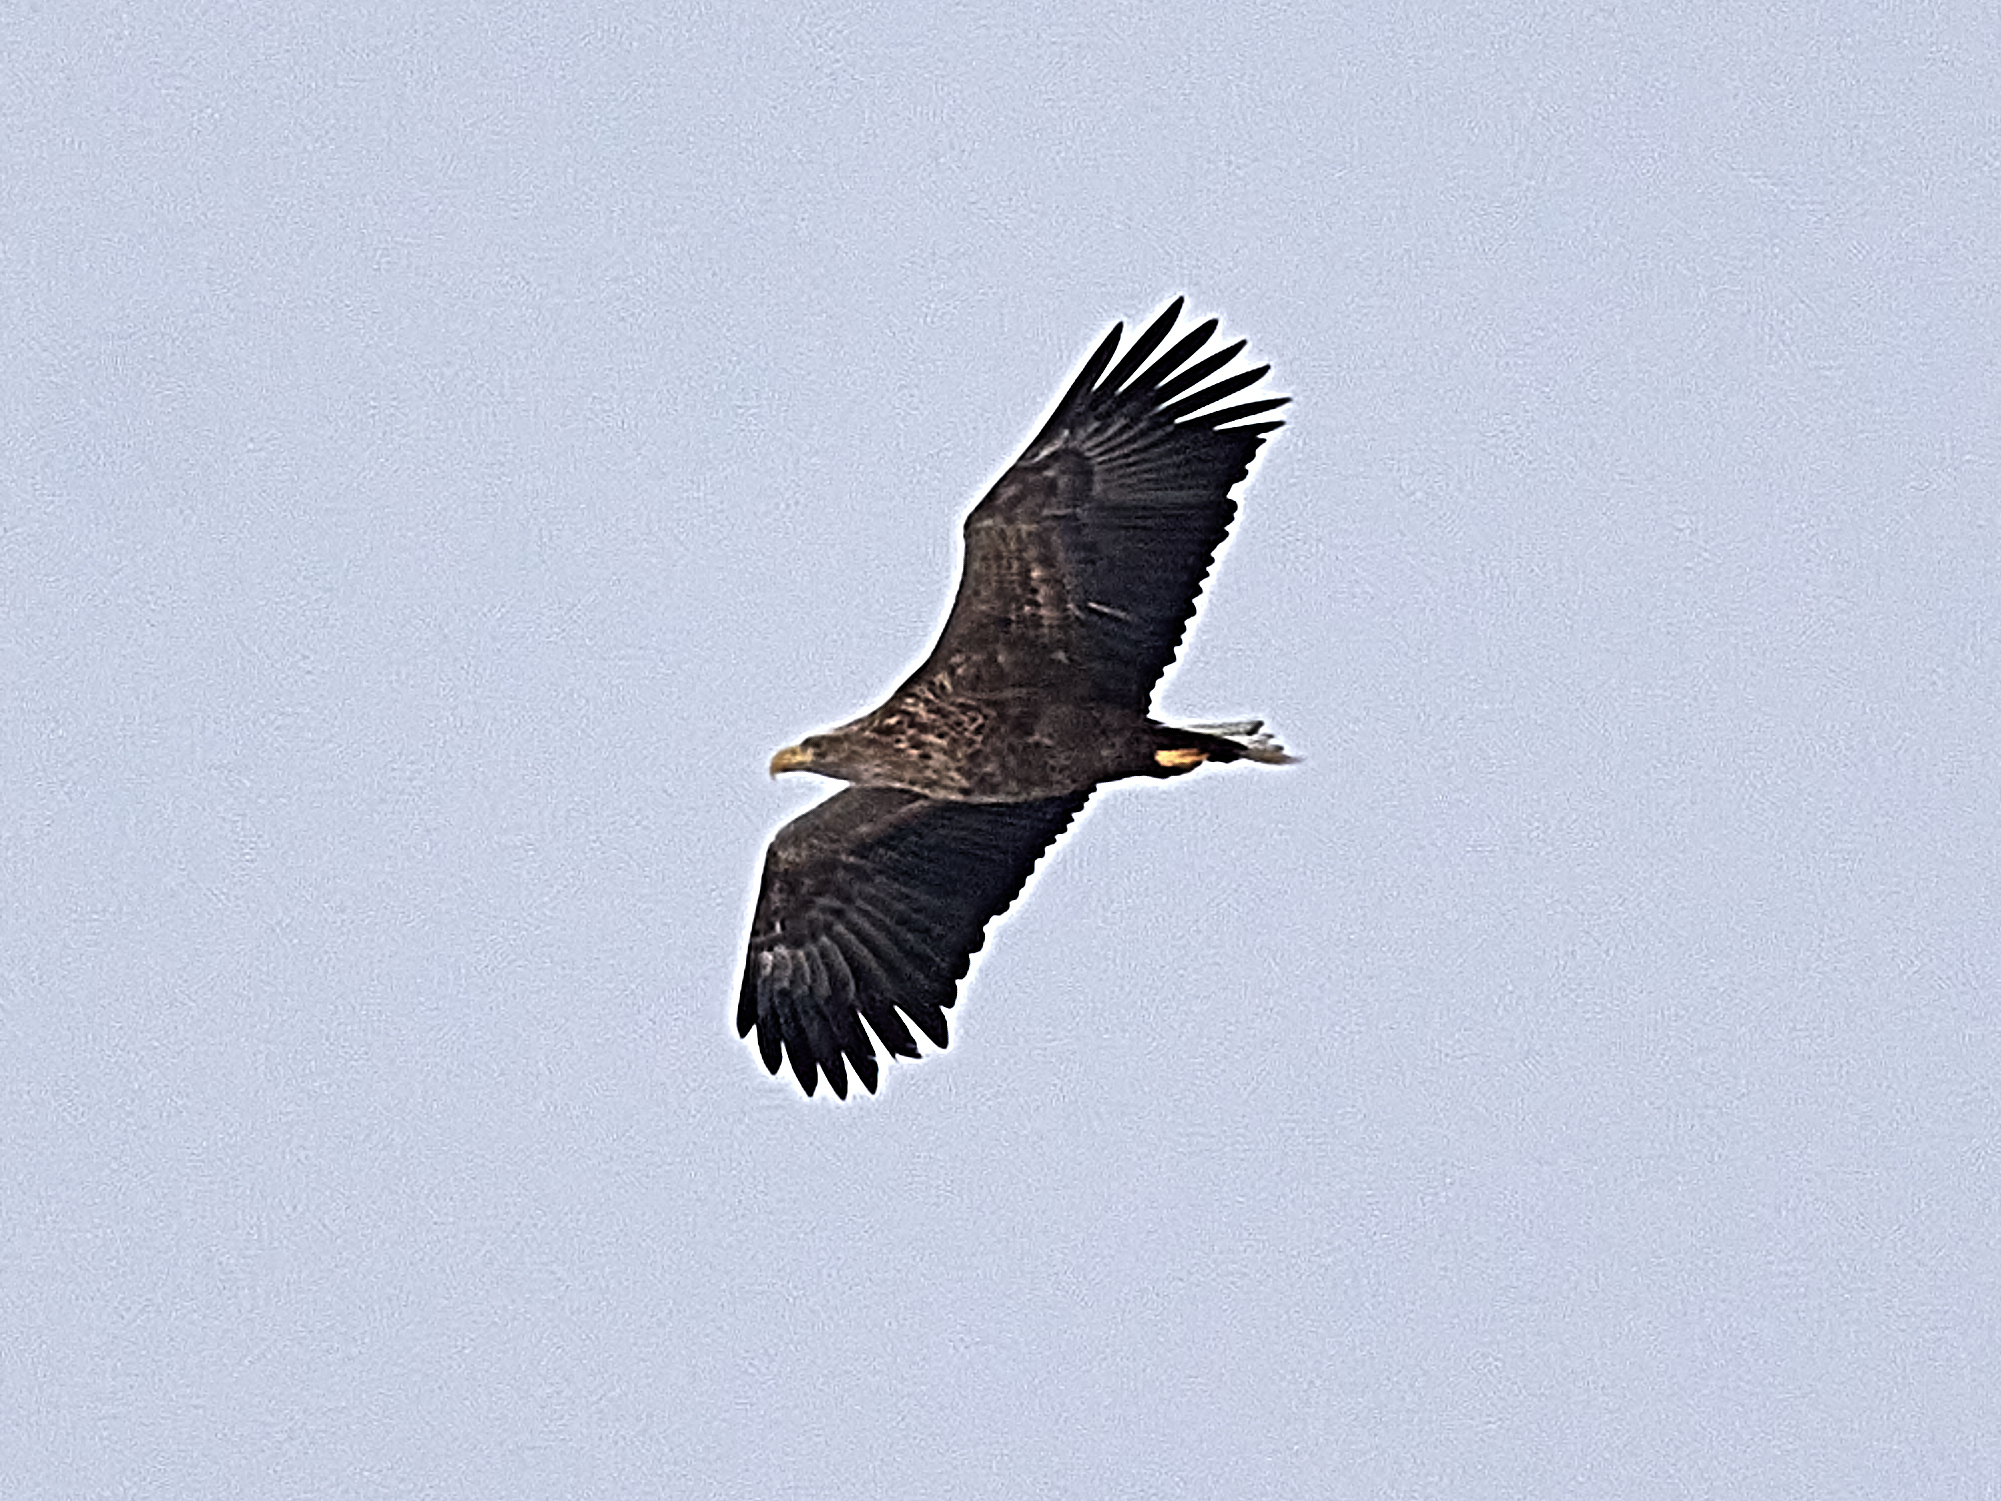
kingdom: Animalia
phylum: Chordata
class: Aves
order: Accipitriformes
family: Accipitridae
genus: Haliaeetus
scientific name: Haliaeetus albicilla
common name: White-tailed eagle
